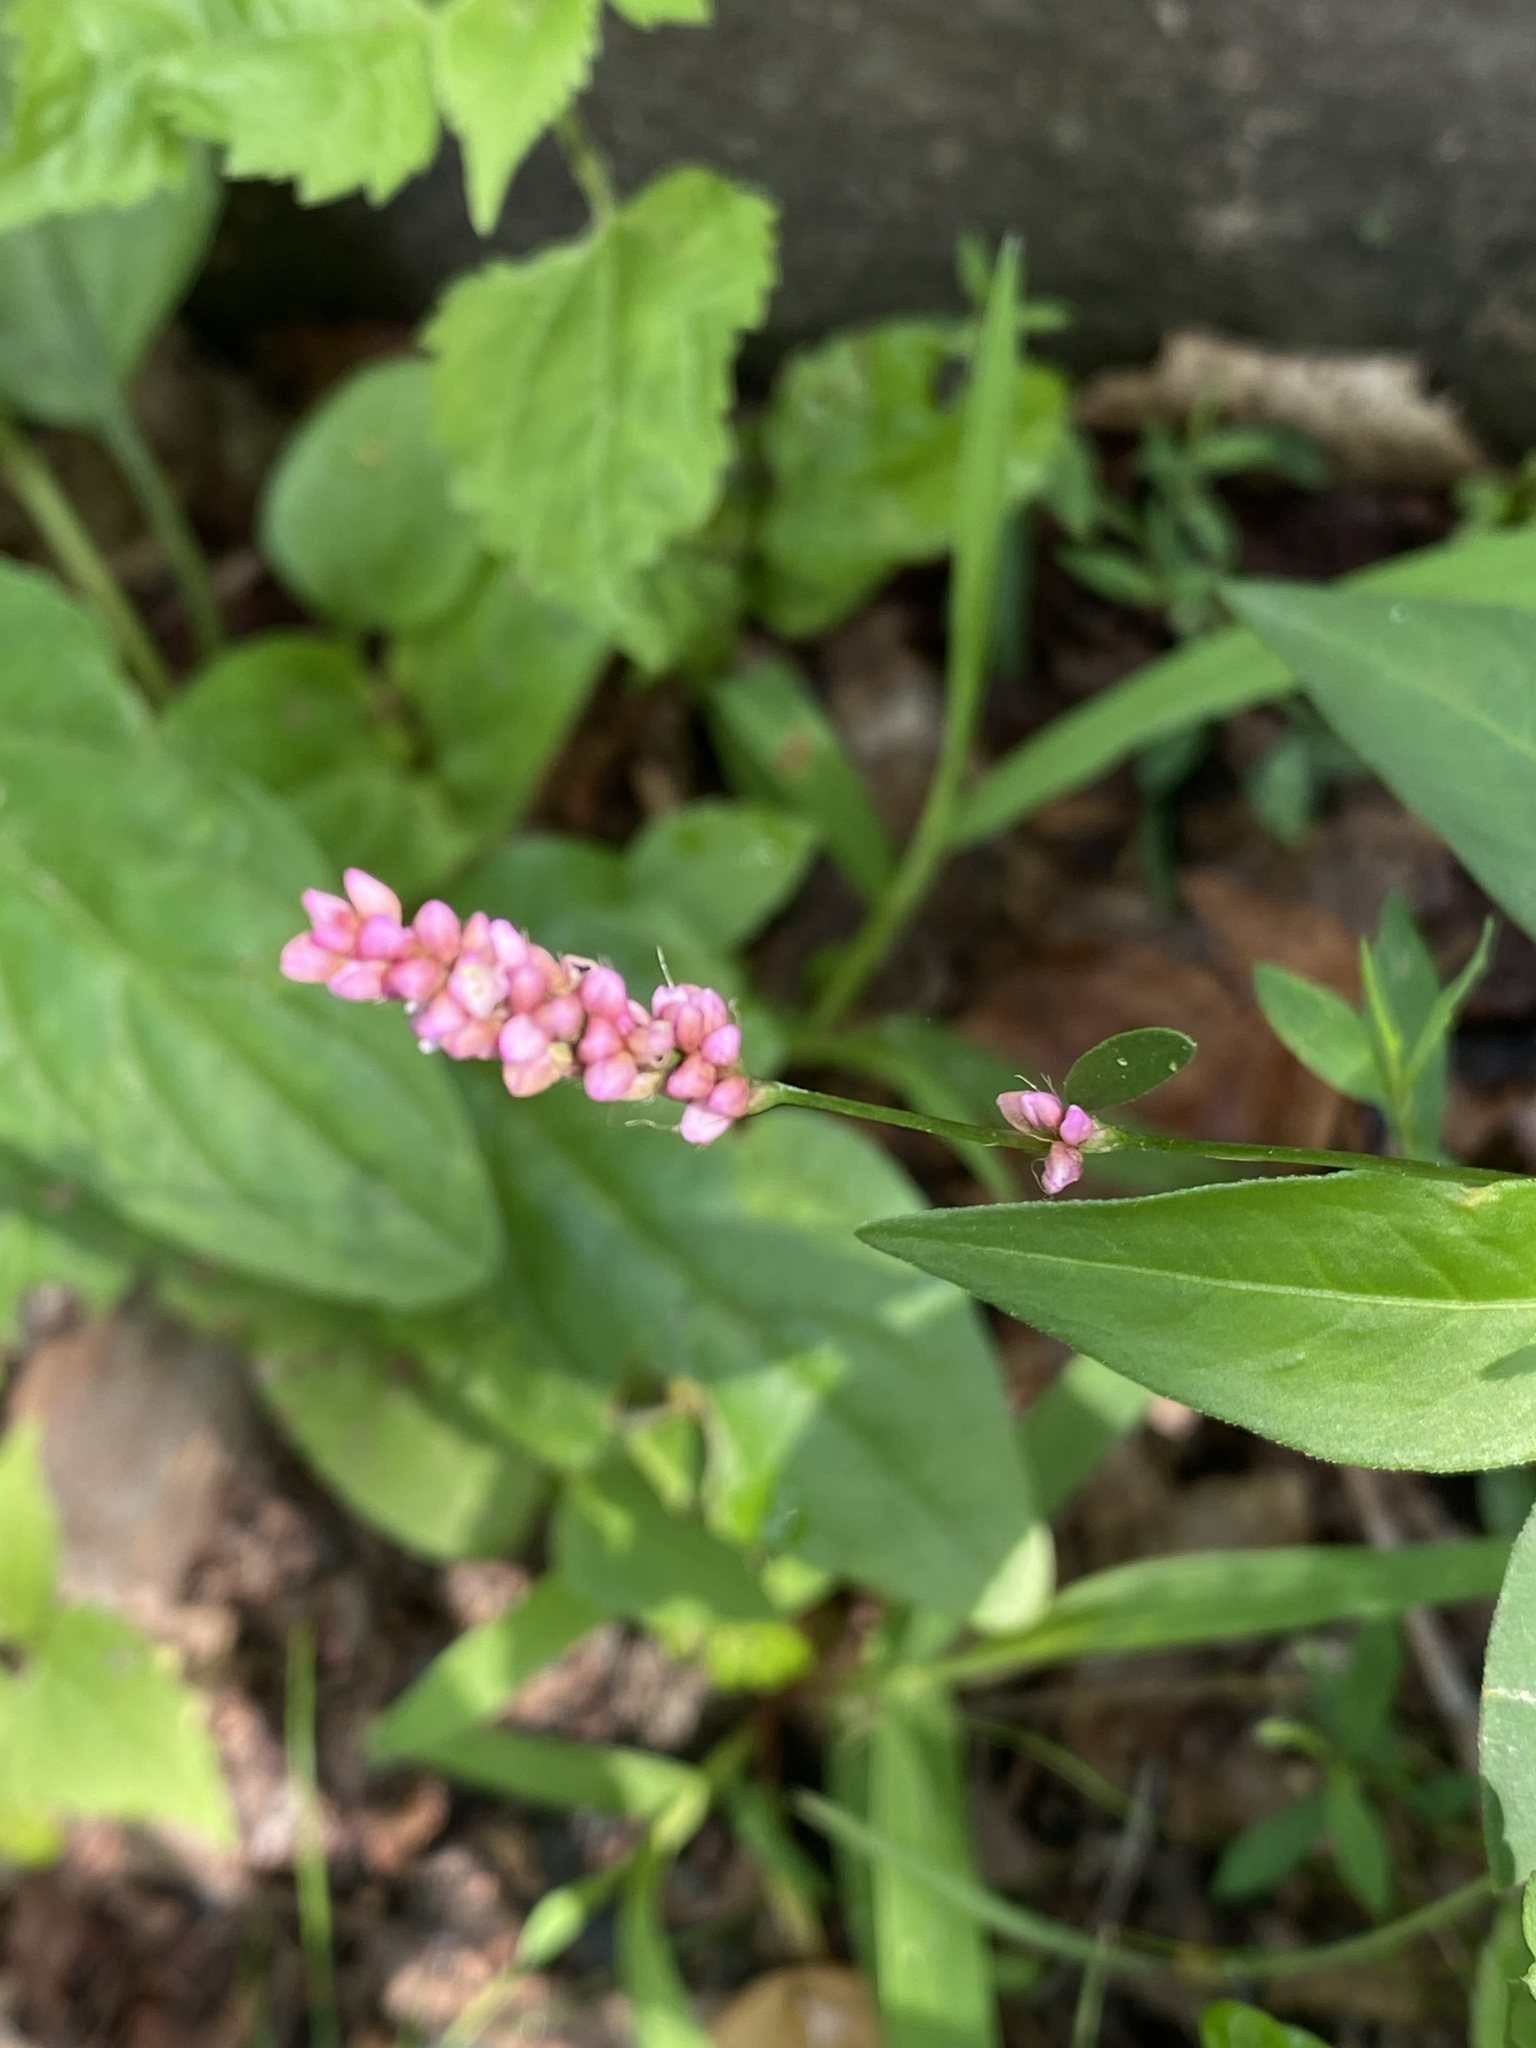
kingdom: Plantae
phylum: Tracheophyta
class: Magnoliopsida
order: Caryophyllales
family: Polygonaceae
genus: Persicaria
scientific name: Persicaria longiseta
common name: Bristly lady's-thumb
